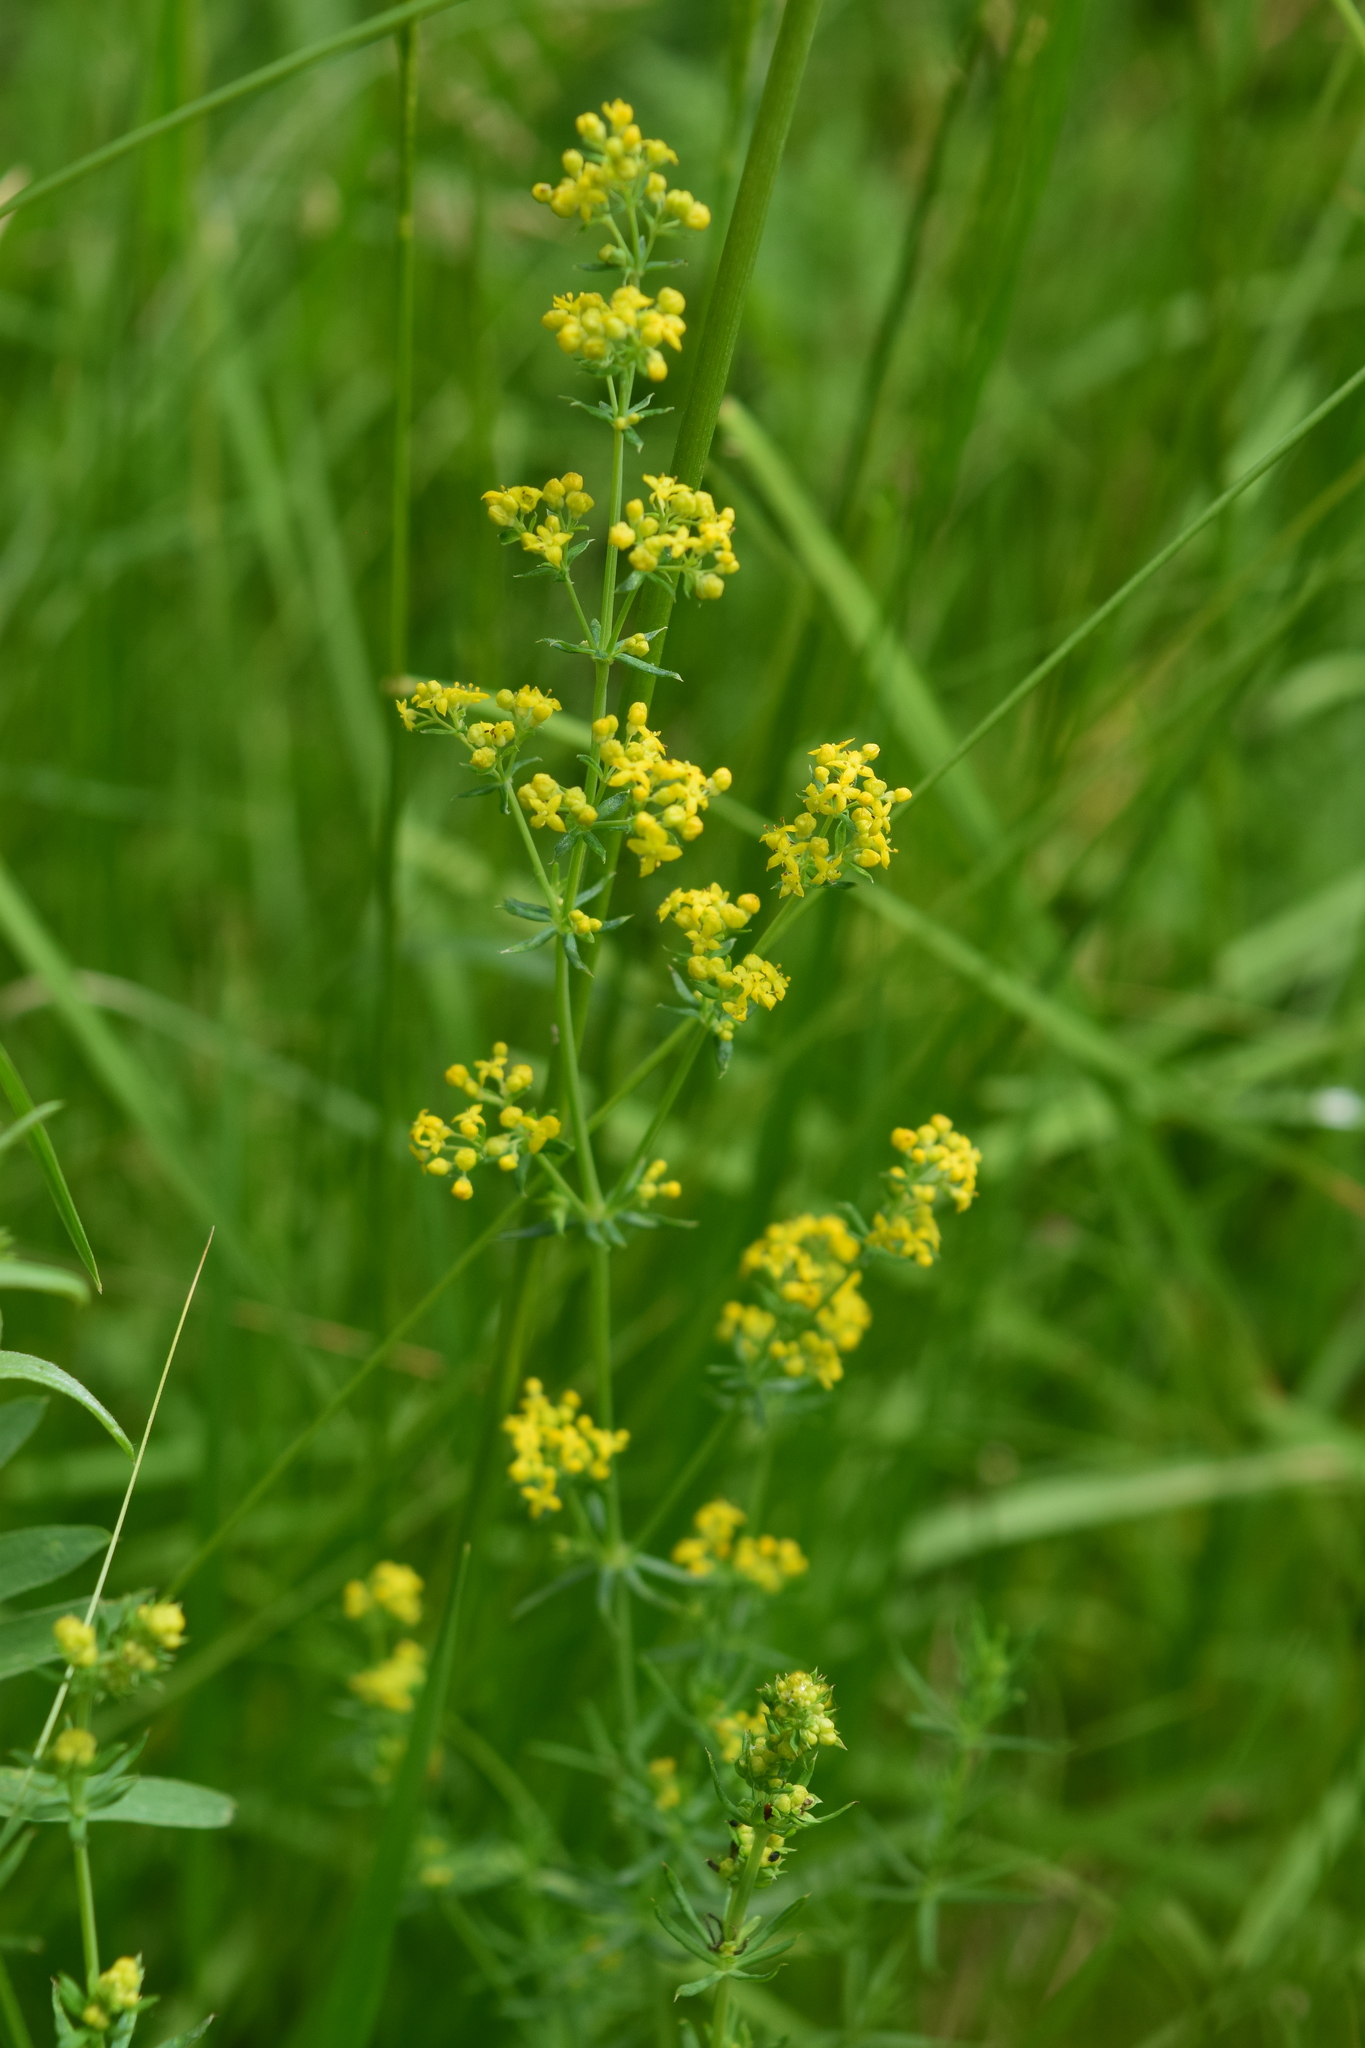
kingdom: Plantae
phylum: Tracheophyta
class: Magnoliopsida
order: Gentianales
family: Rubiaceae
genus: Galium
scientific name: Galium verum
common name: Lady's bedstraw
